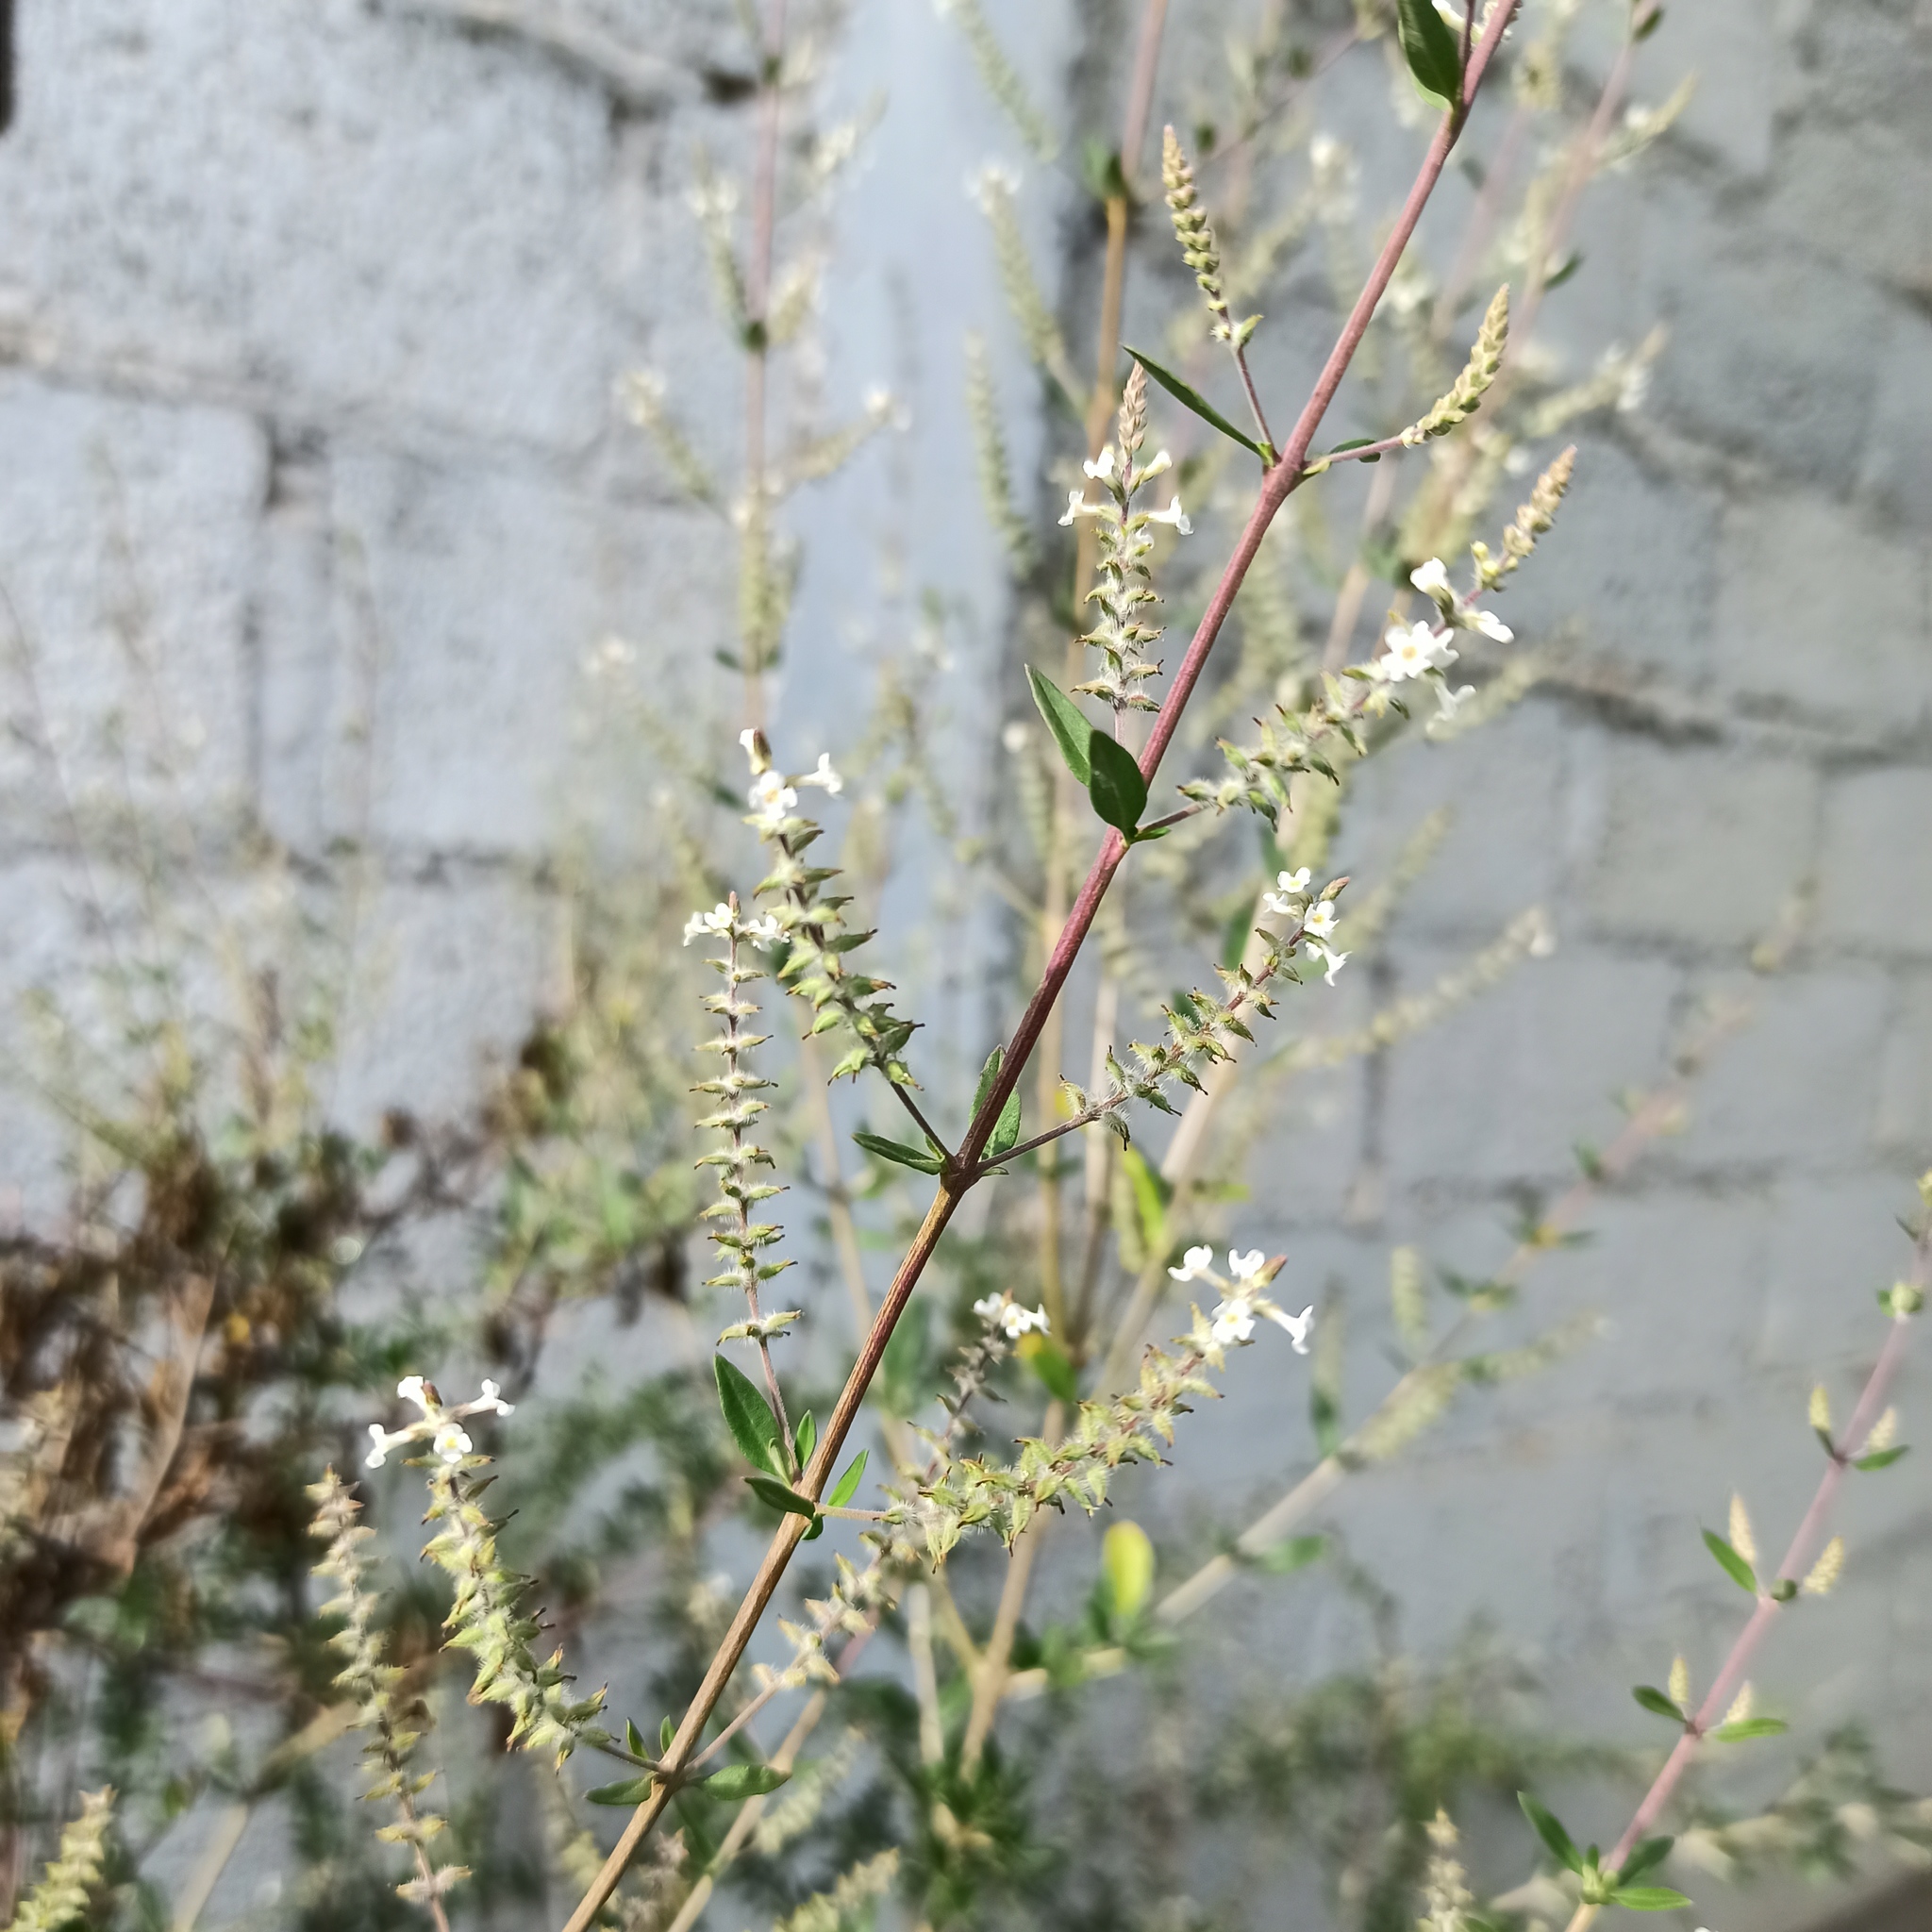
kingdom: Plantae
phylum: Tracheophyta
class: Magnoliopsida
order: Lamiales
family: Verbenaceae
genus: Aloysia
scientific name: Aloysia gratissima
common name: Common bee-brush
